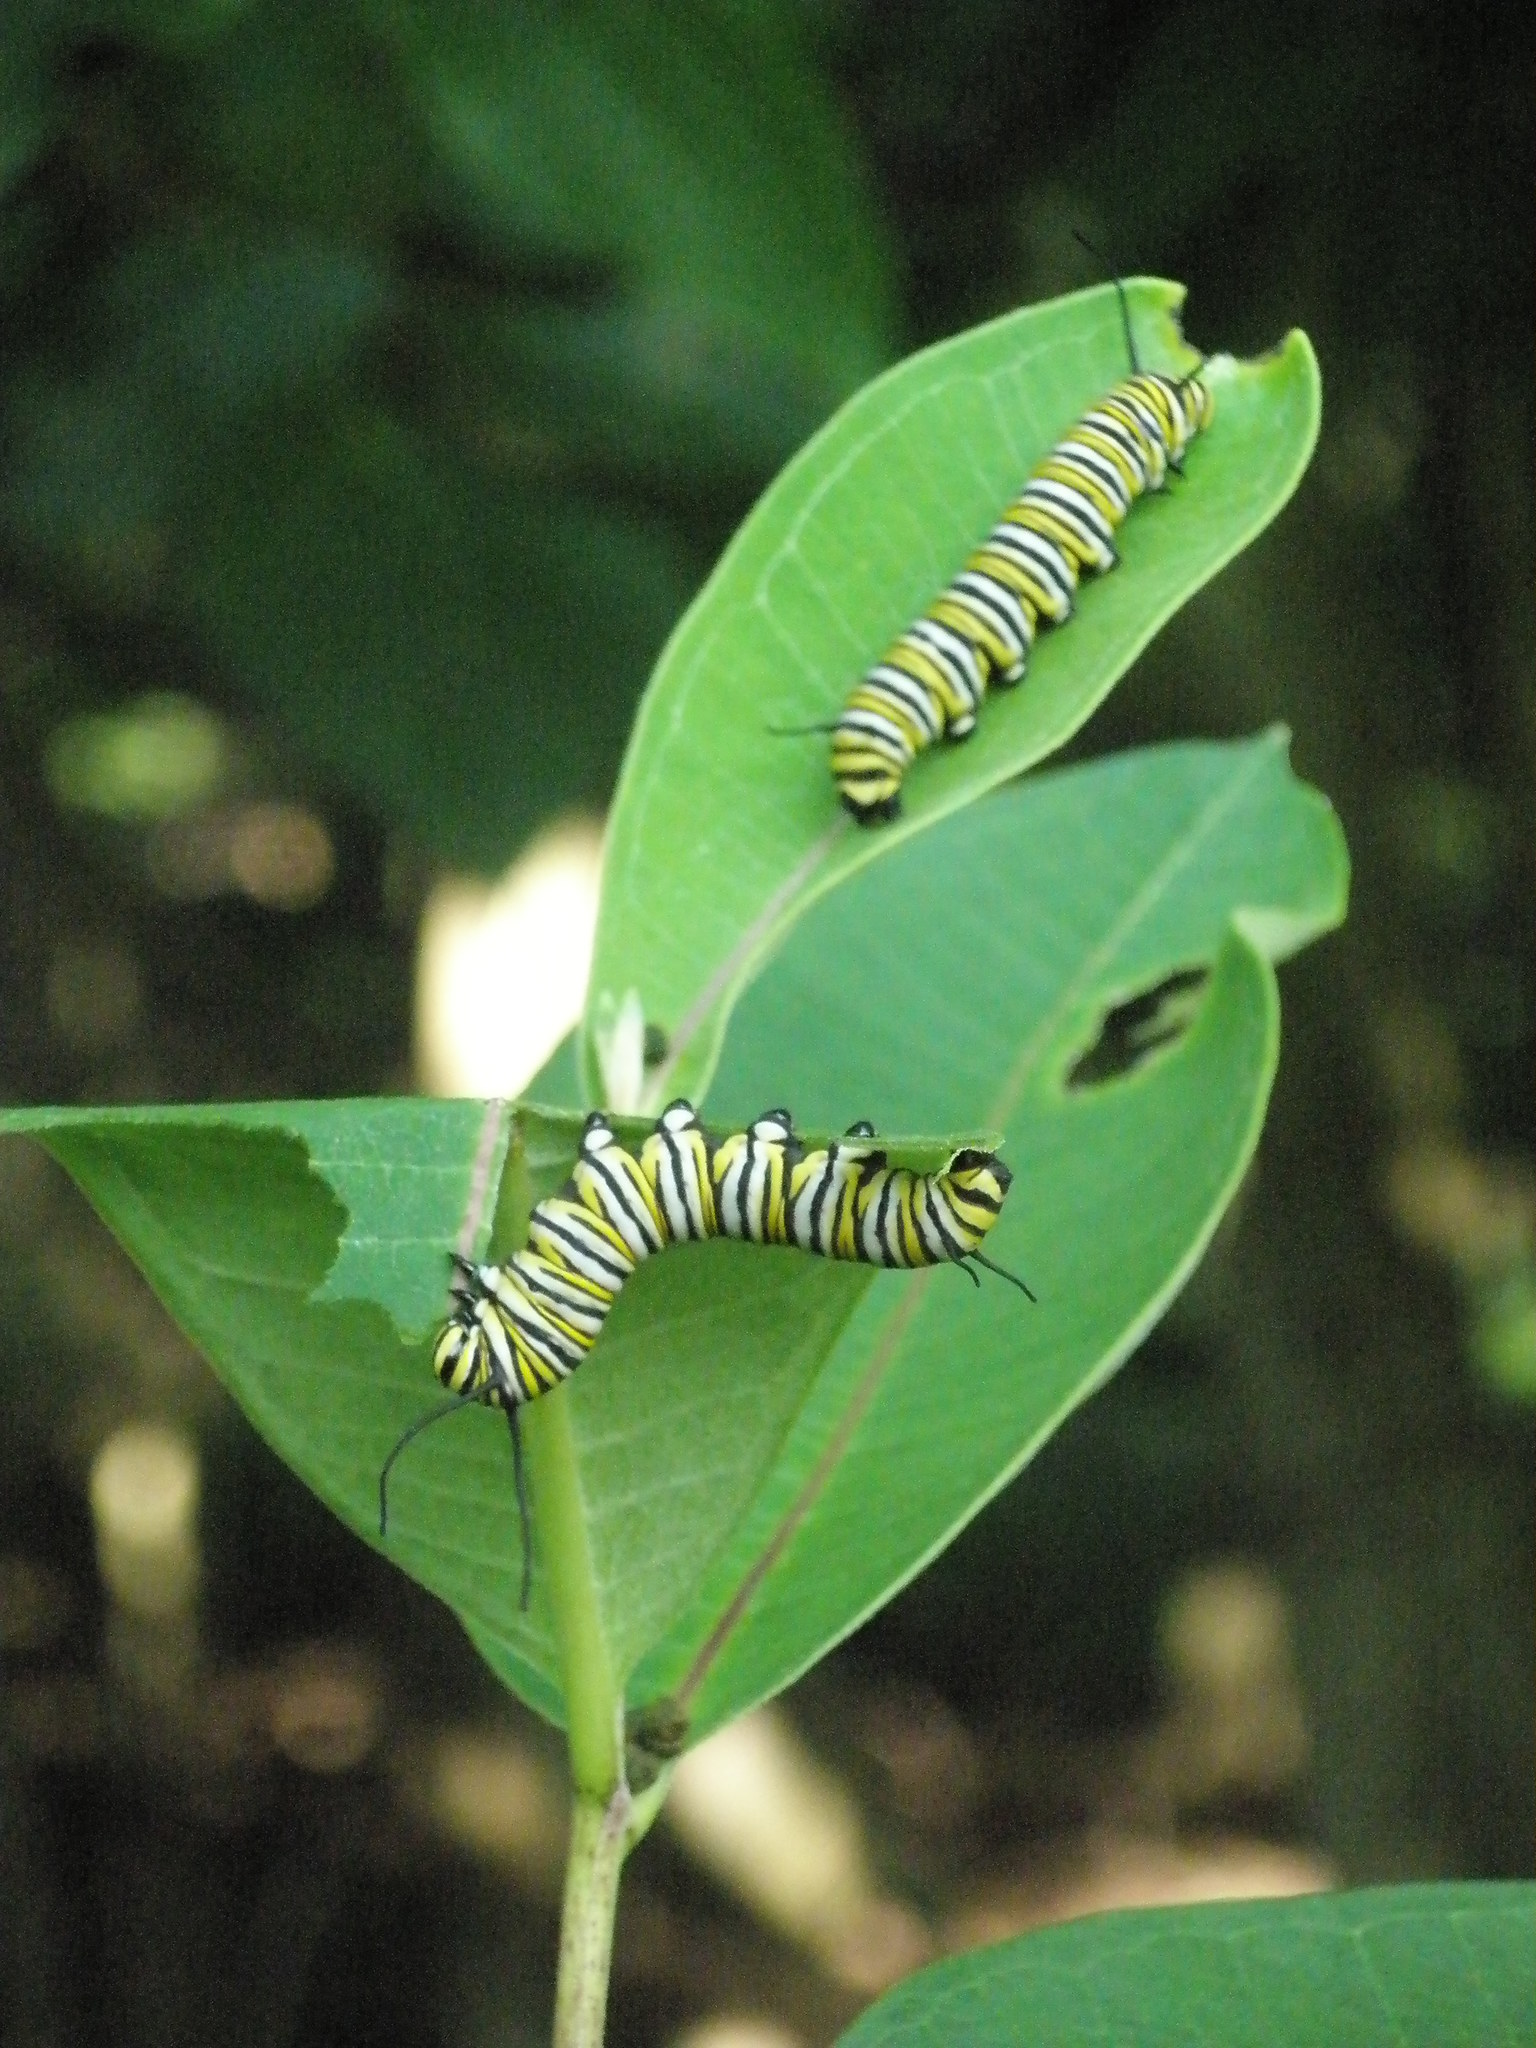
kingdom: Animalia
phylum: Arthropoda
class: Insecta
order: Lepidoptera
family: Nymphalidae
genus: Danaus
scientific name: Danaus plexippus
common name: Monarch
